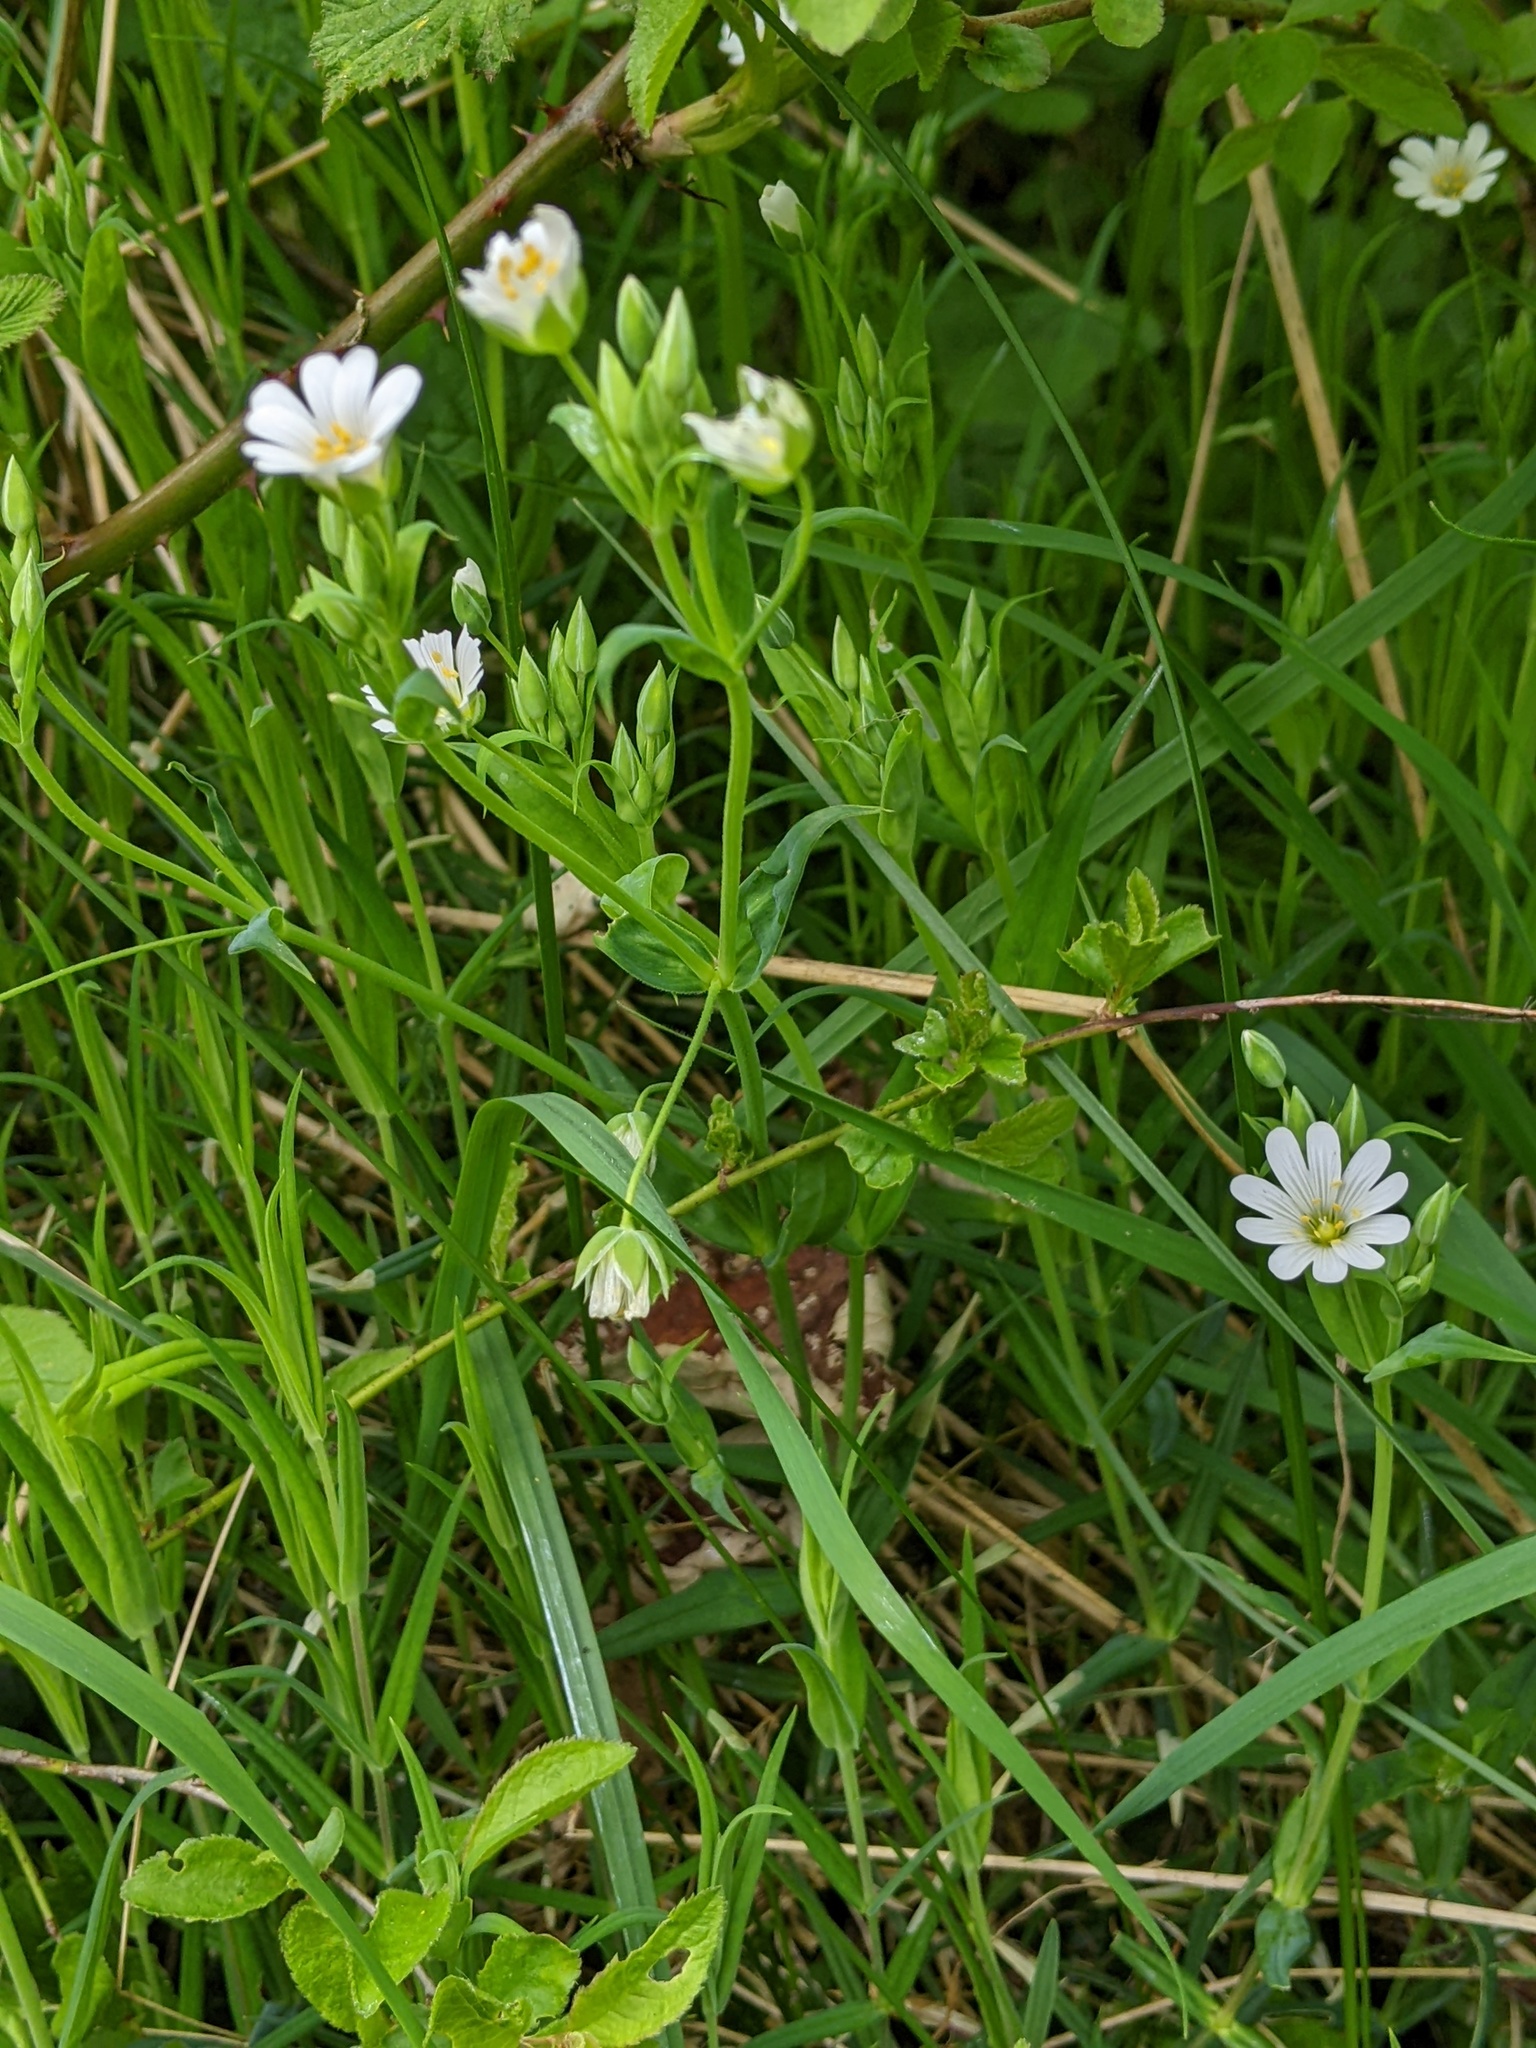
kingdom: Plantae
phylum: Tracheophyta
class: Magnoliopsida
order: Caryophyllales
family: Caryophyllaceae
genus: Rabelera
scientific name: Rabelera holostea
